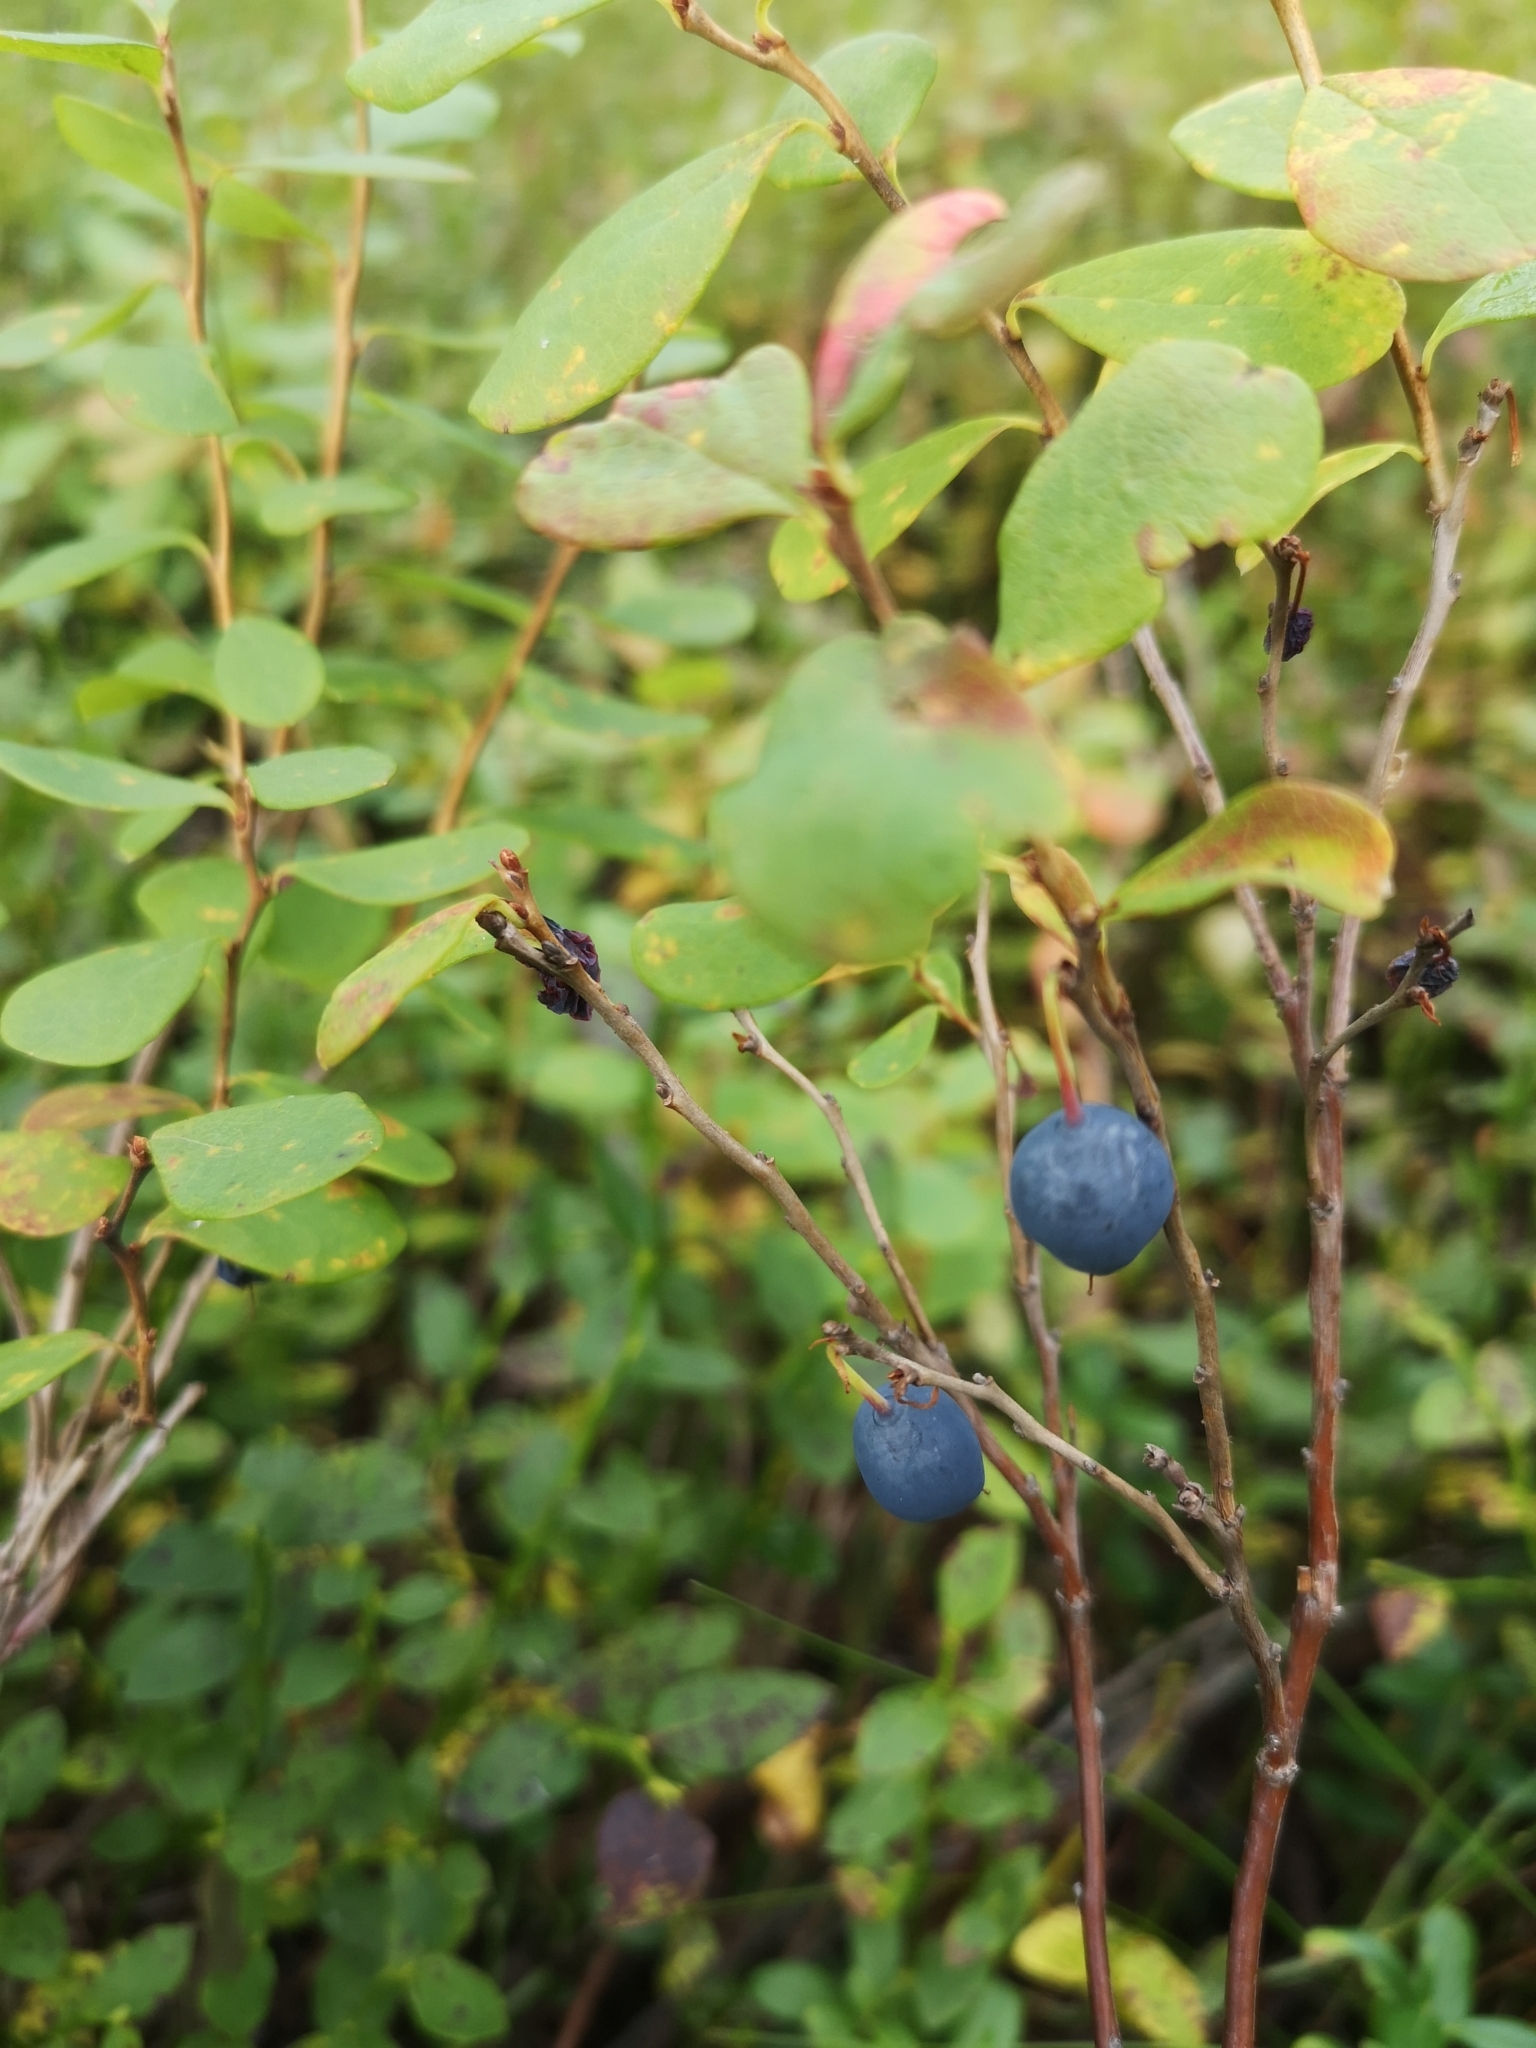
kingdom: Plantae
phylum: Tracheophyta
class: Magnoliopsida
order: Ericales
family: Ericaceae
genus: Vaccinium
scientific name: Vaccinium uliginosum
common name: Bog bilberry
